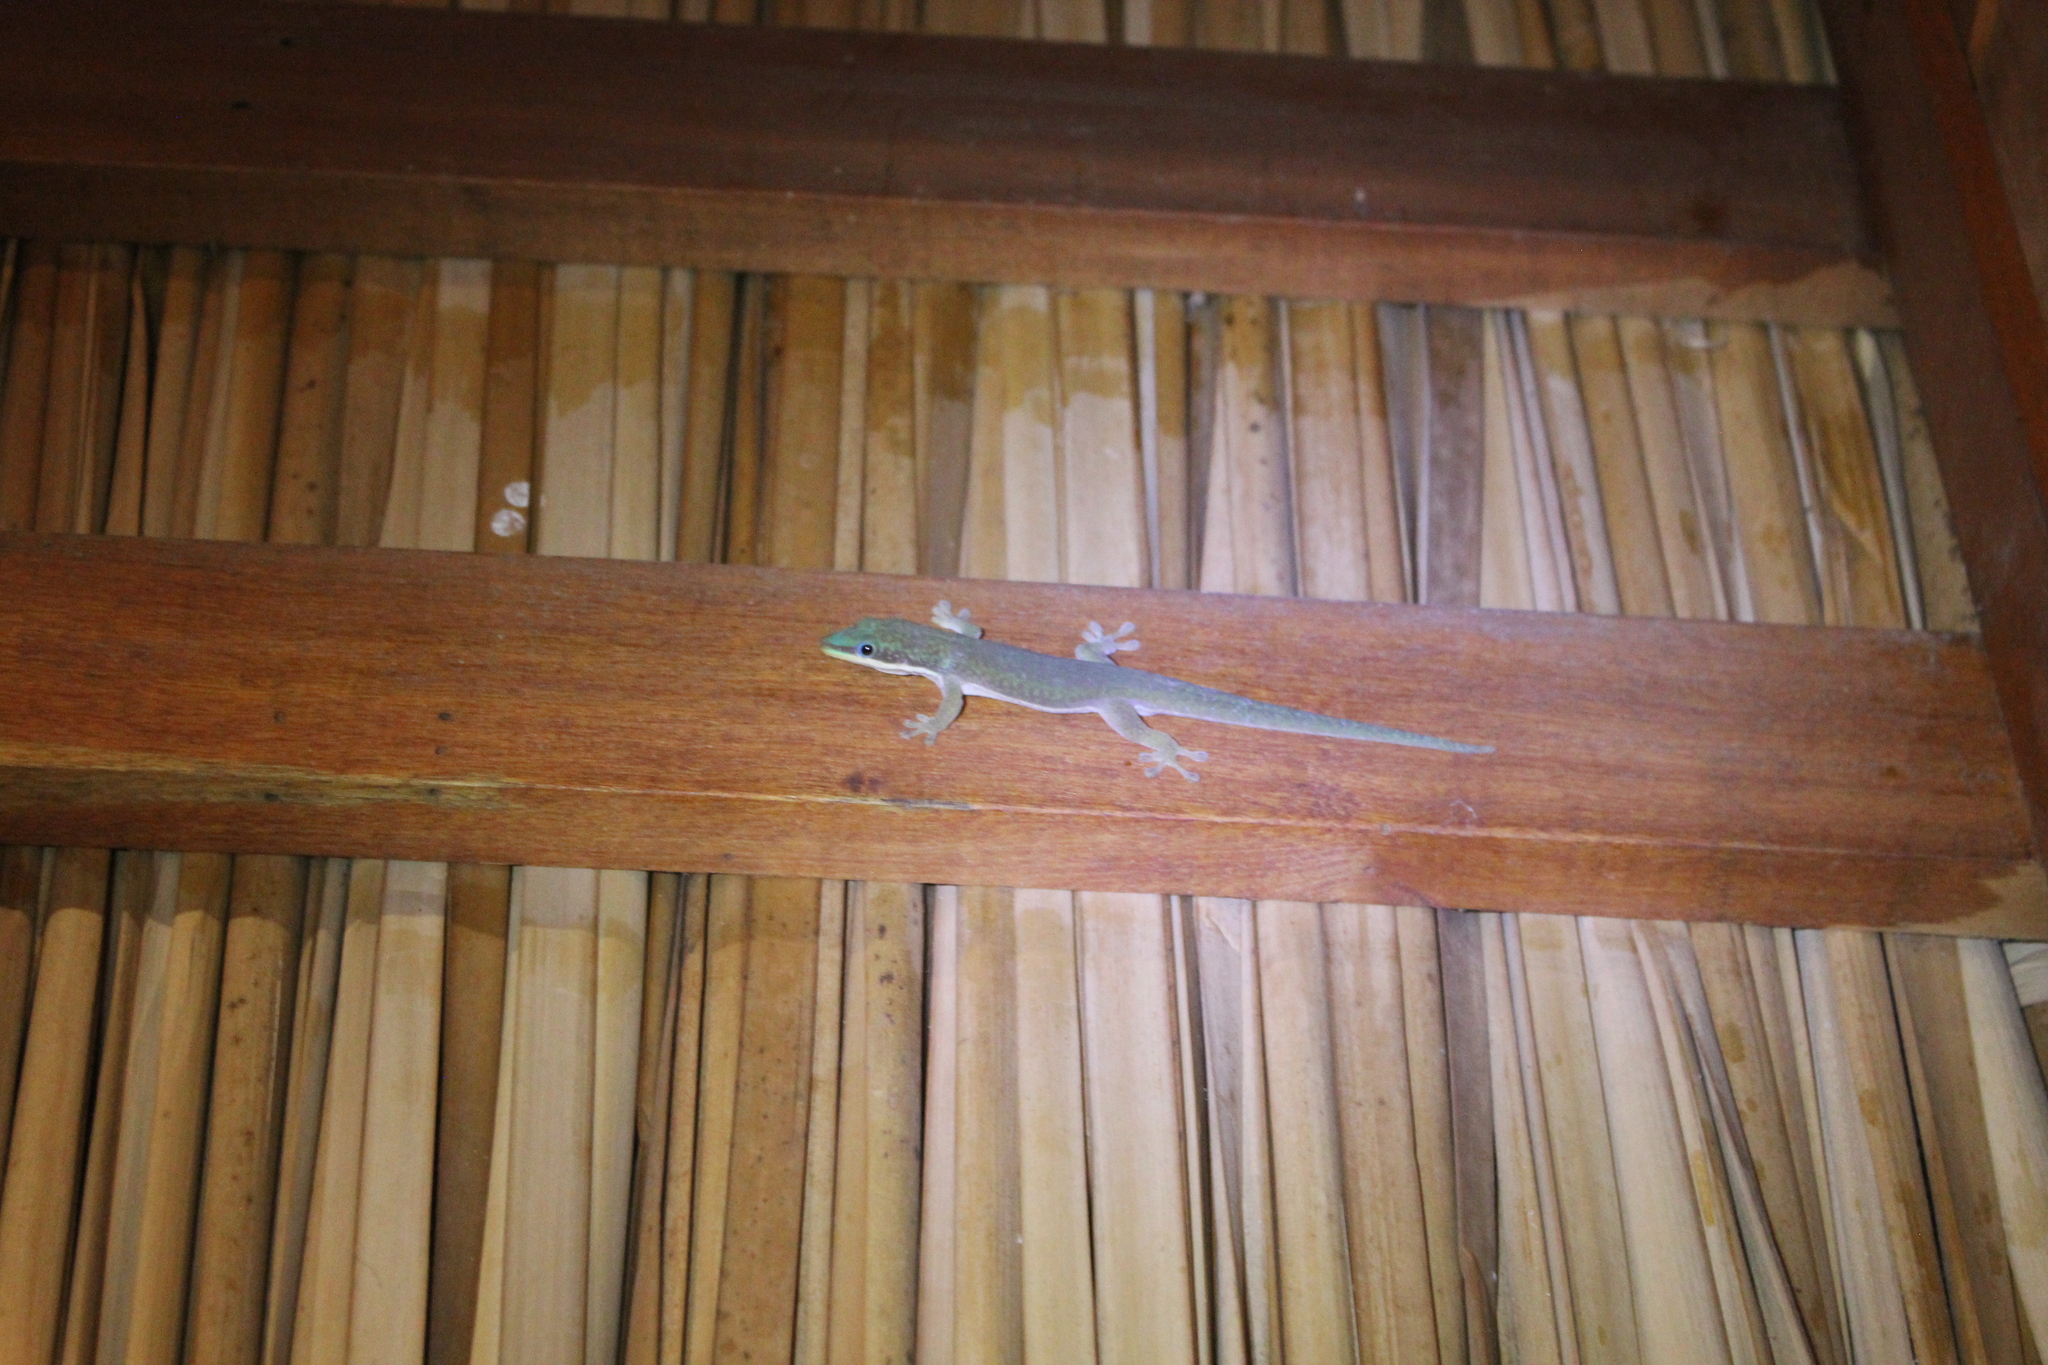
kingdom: Animalia
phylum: Chordata
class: Squamata
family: Gekkonidae
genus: Phelsuma
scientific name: Phelsuma hielscheri
